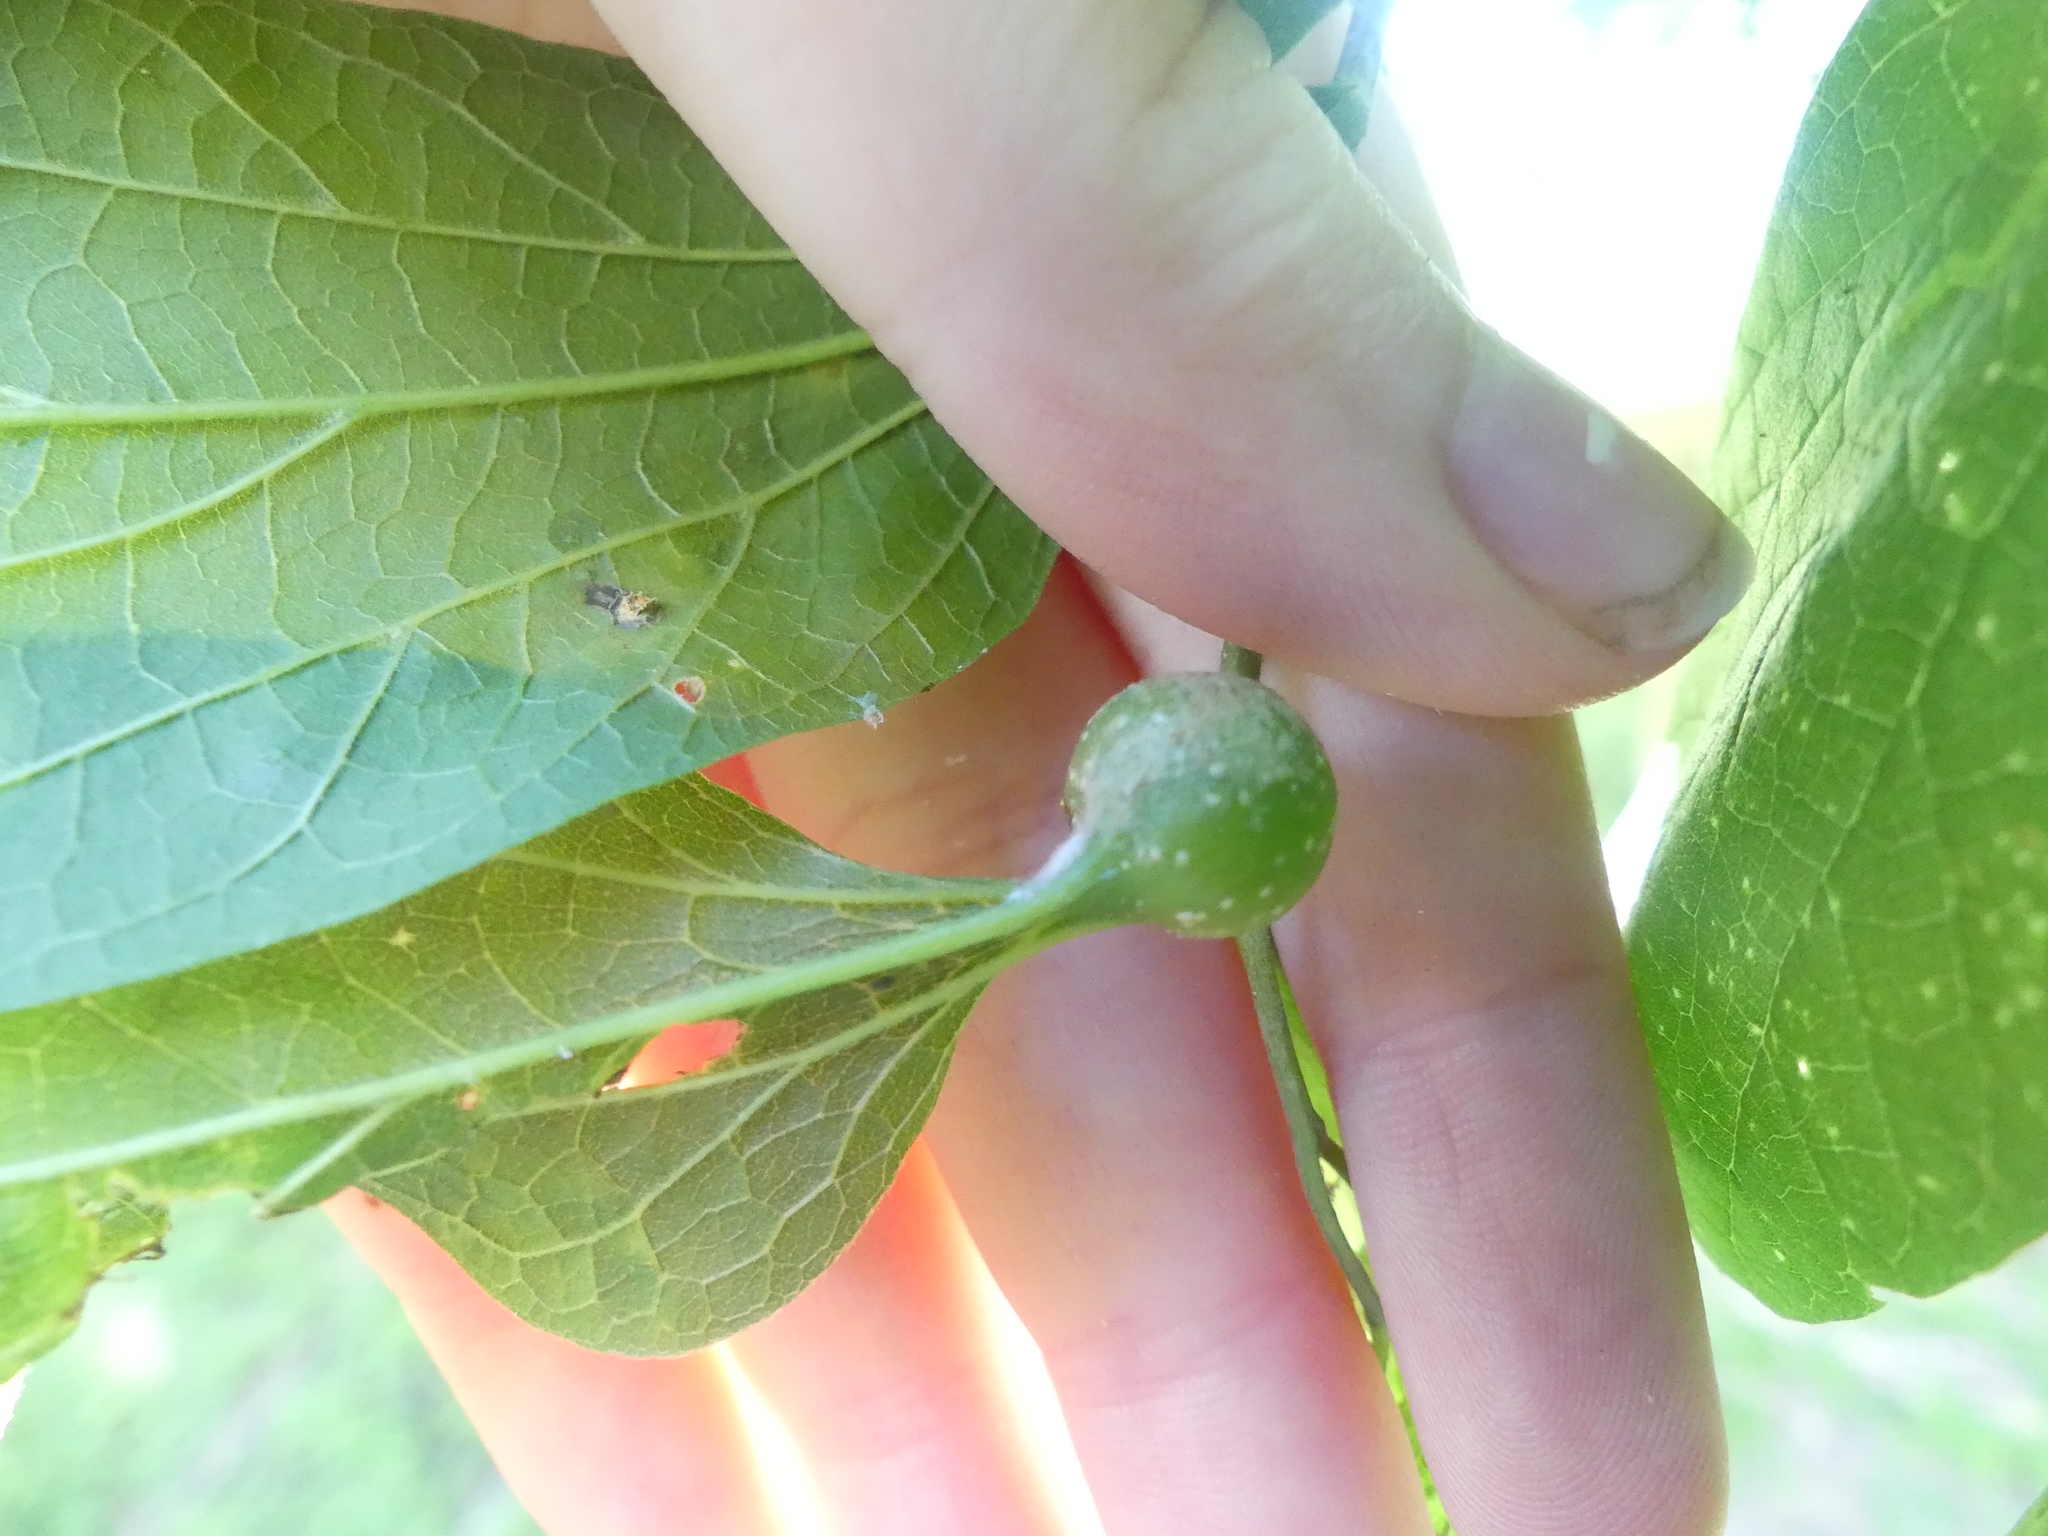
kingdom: Animalia
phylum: Arthropoda
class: Insecta
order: Hemiptera
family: Aphalaridae
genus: Pachypsylla
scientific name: Pachypsylla venusta
